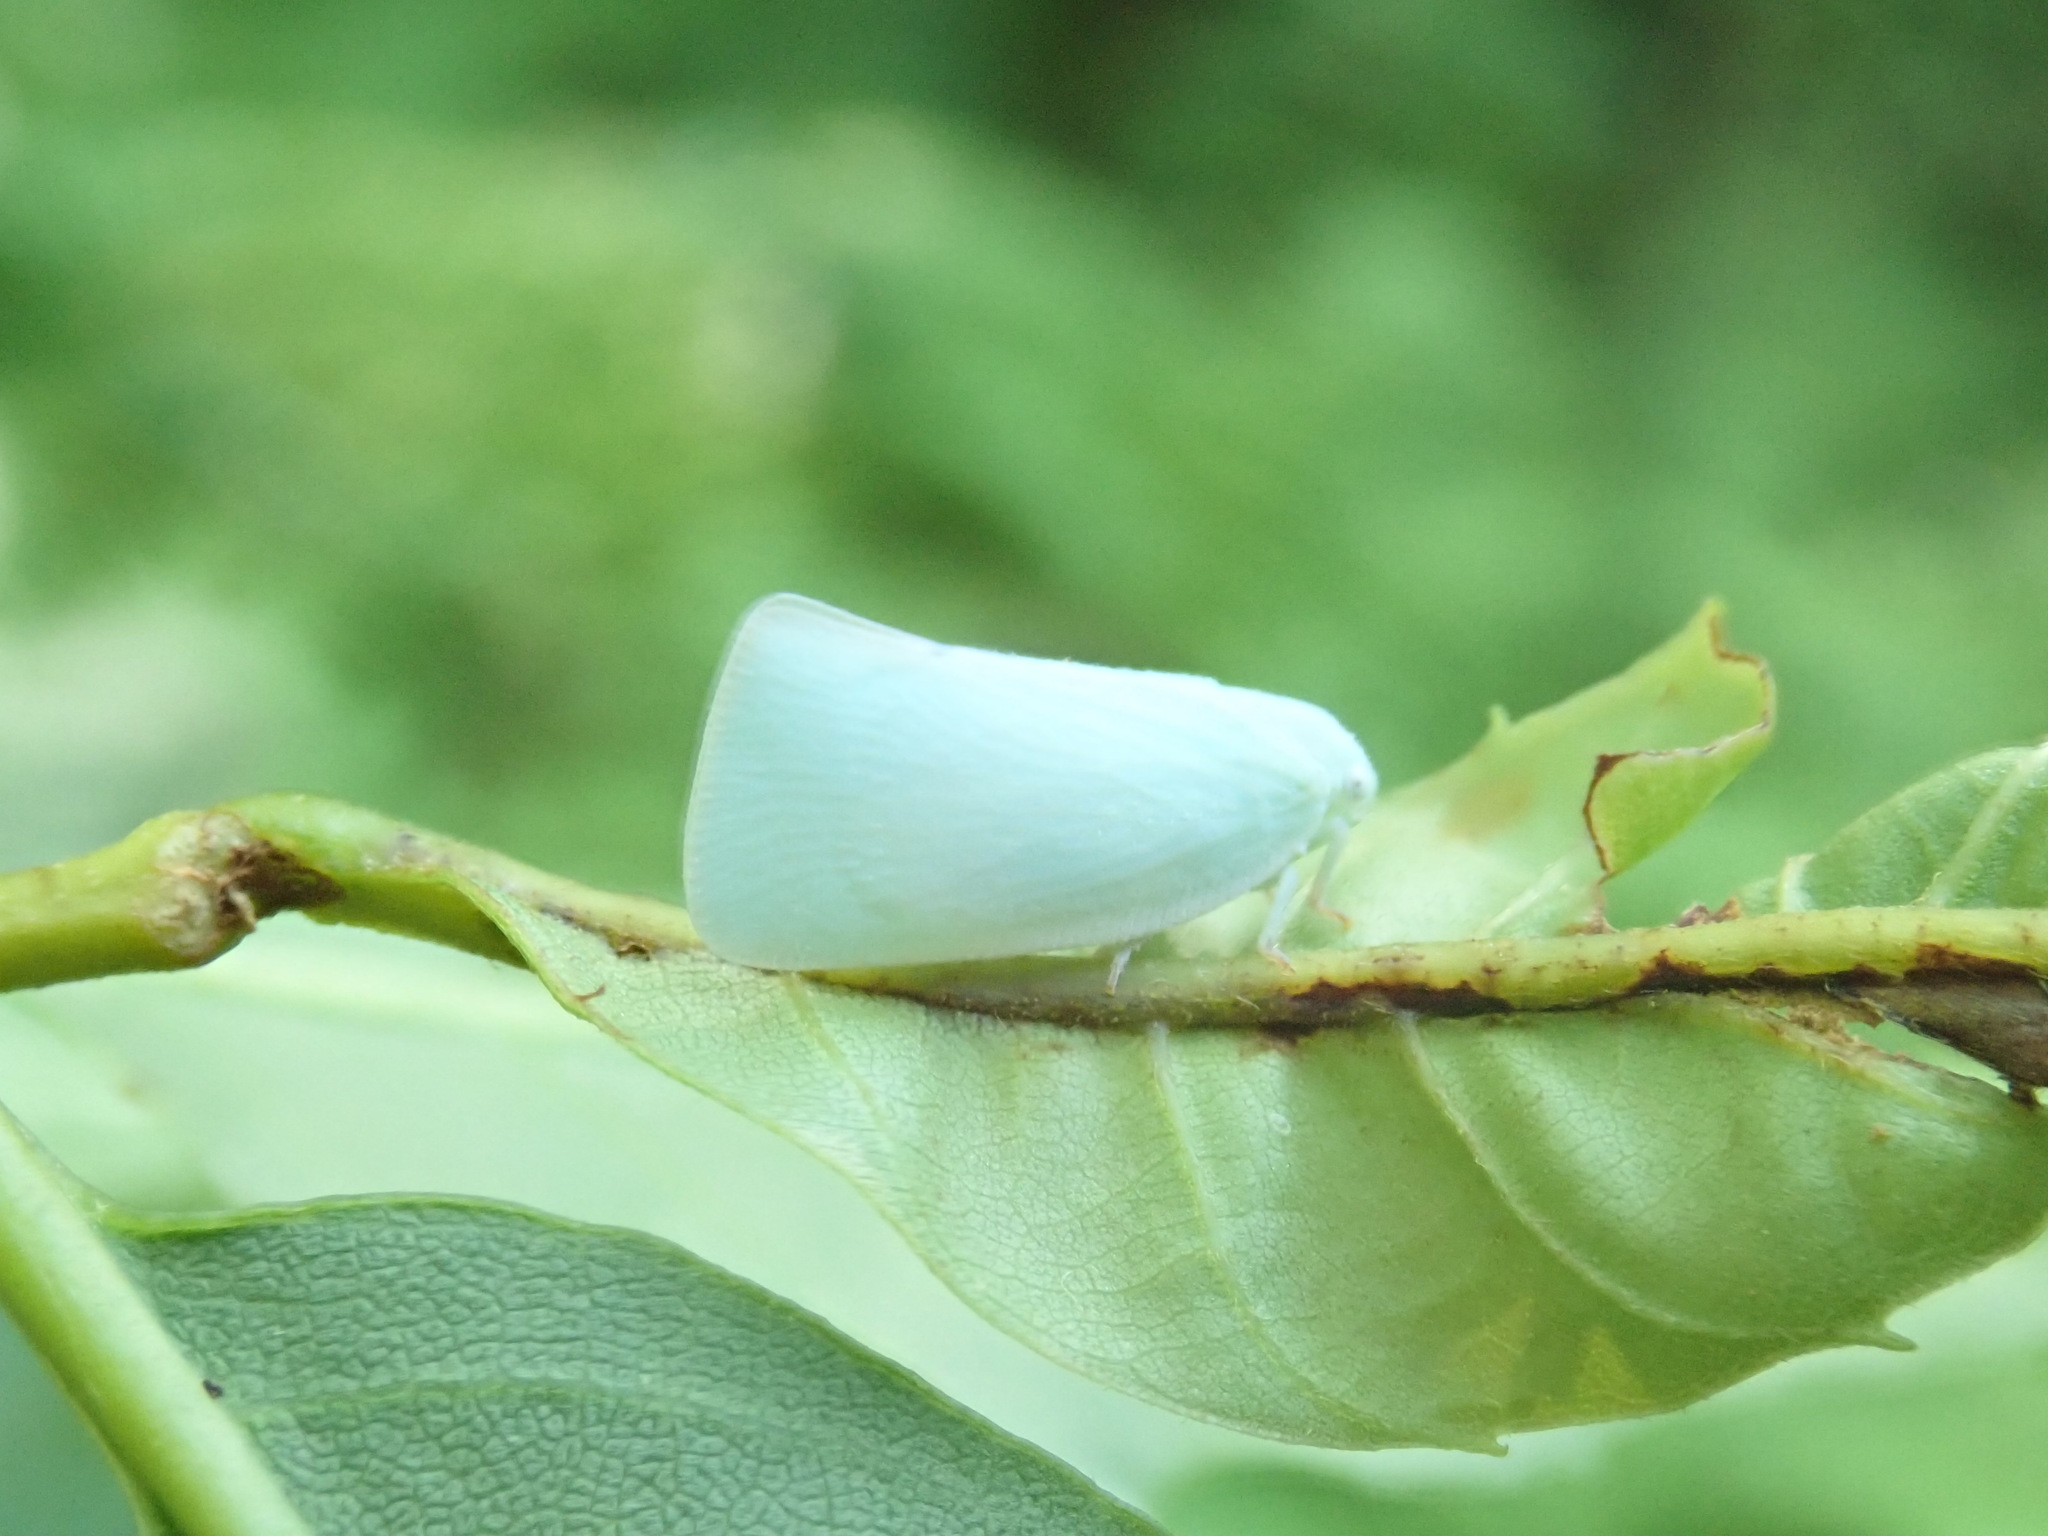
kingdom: Animalia
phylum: Arthropoda
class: Insecta
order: Hemiptera
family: Flatidae
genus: Flatormenis
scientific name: Flatormenis proxima
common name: Northern flatid planthopper
